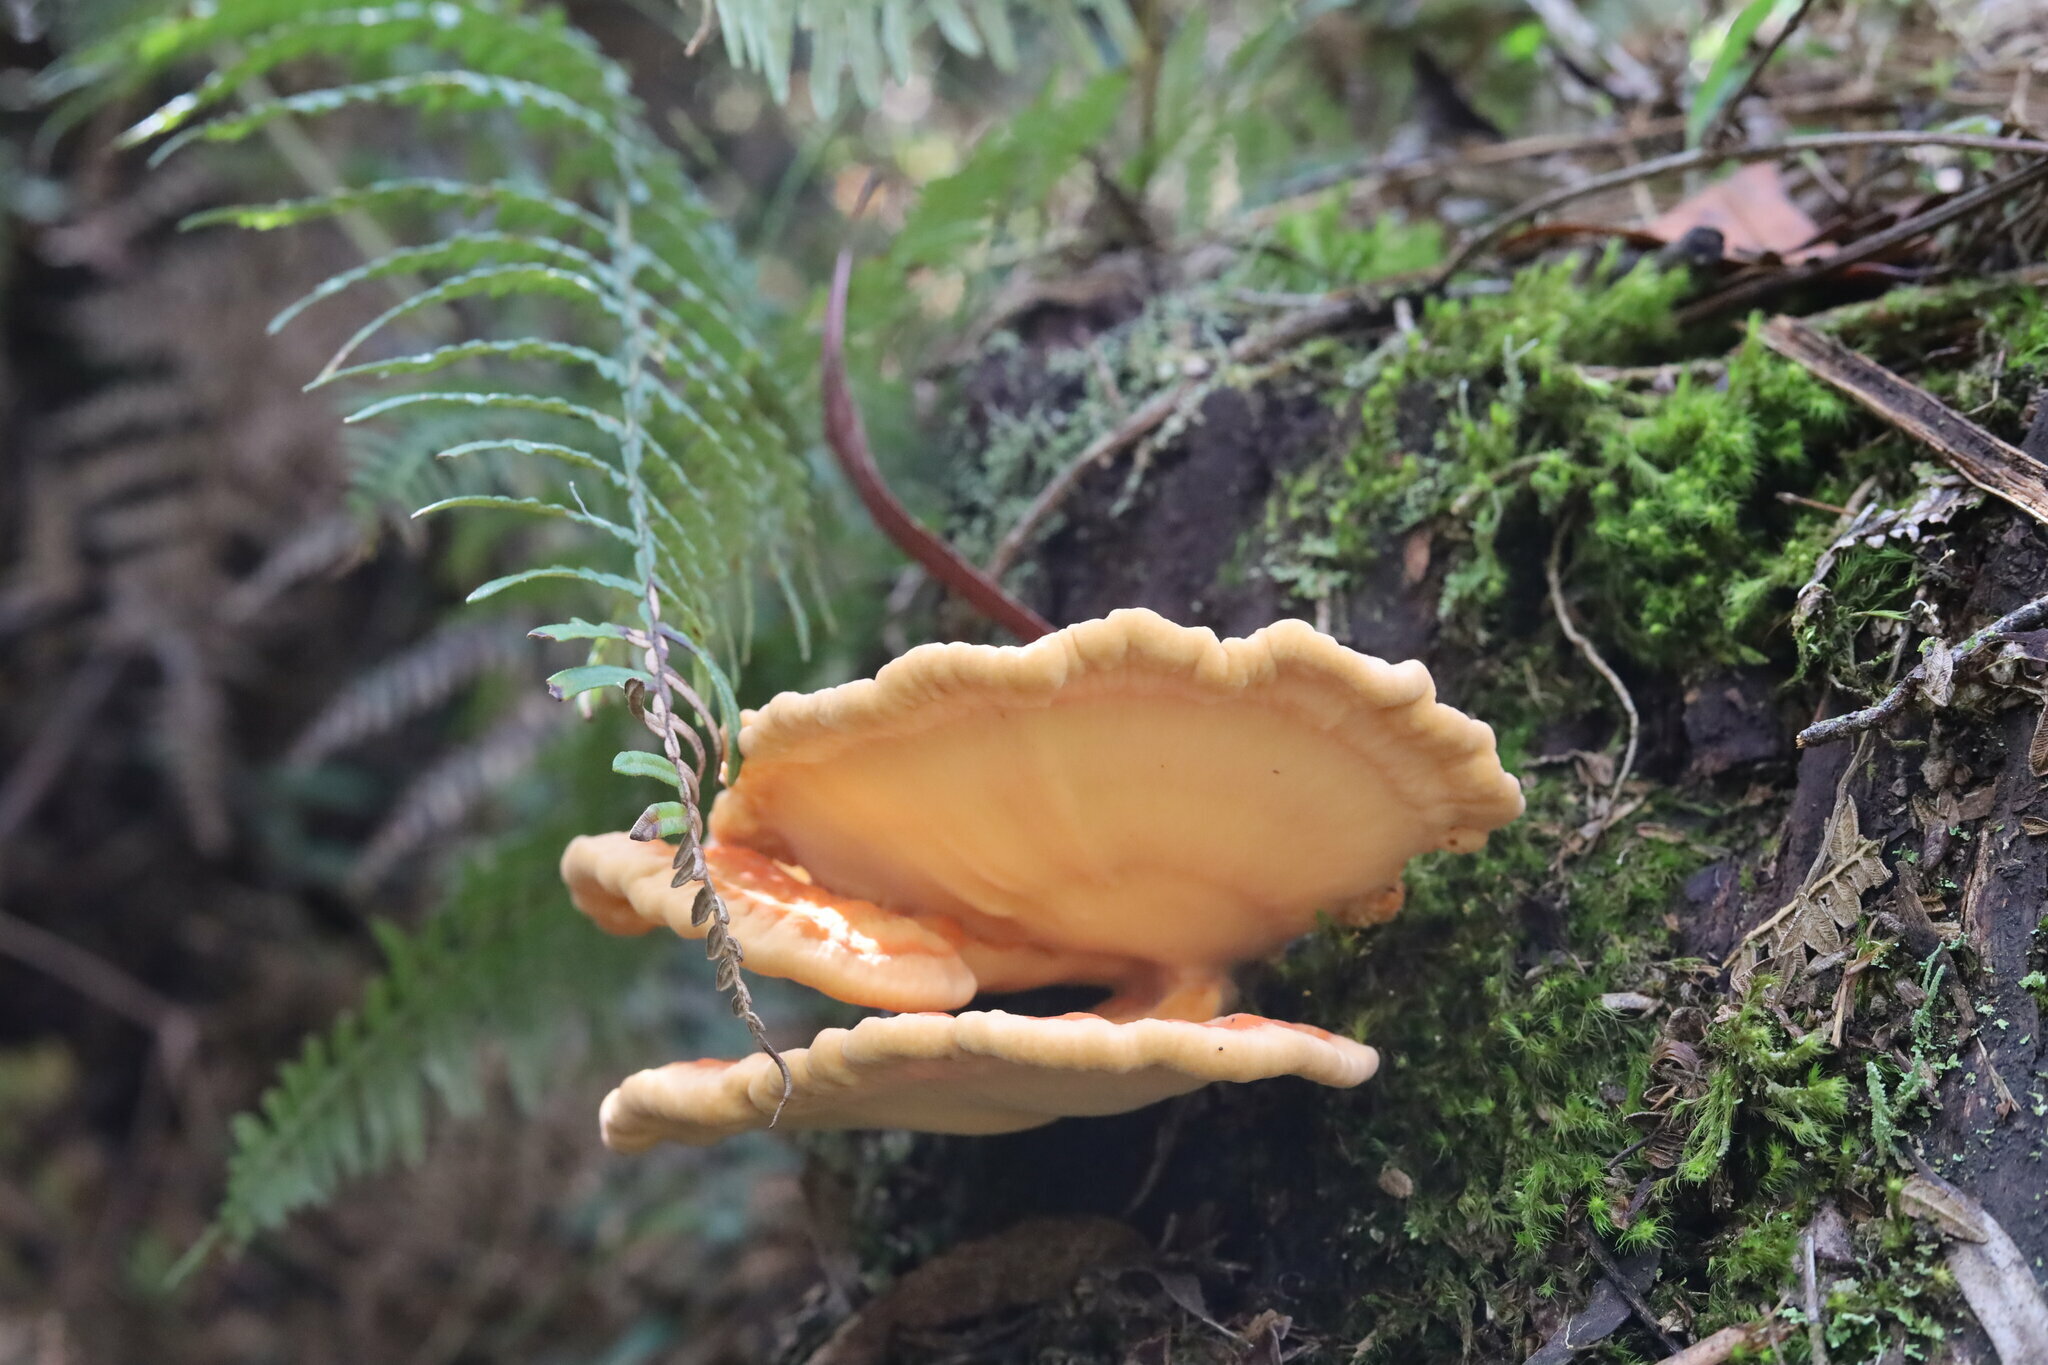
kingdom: Fungi
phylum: Basidiomycota
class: Agaricomycetes
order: Polyporales
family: Laetiporaceae
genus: Laetiporus
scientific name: Laetiporus sulphureus
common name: Chicken of the woods
